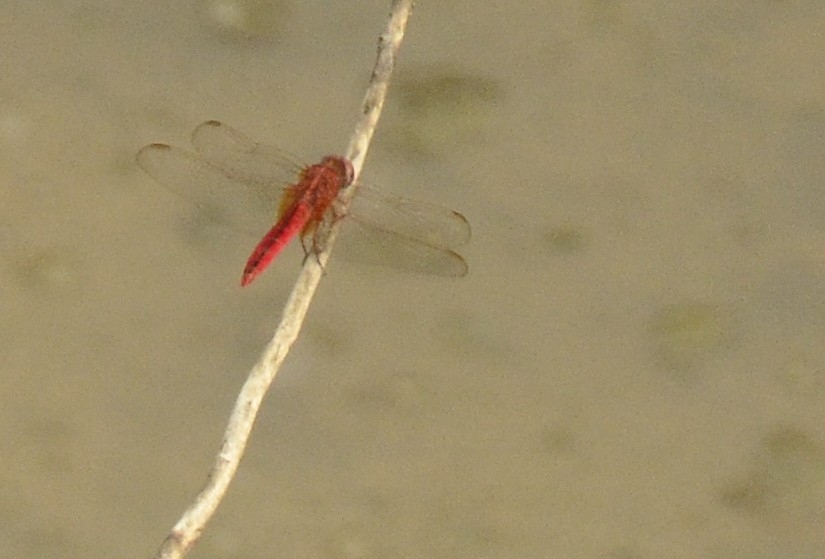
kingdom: Animalia
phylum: Arthropoda
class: Insecta
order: Odonata
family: Libellulidae
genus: Crocothemis
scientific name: Crocothemis servilia
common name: Scarlet skimmer
